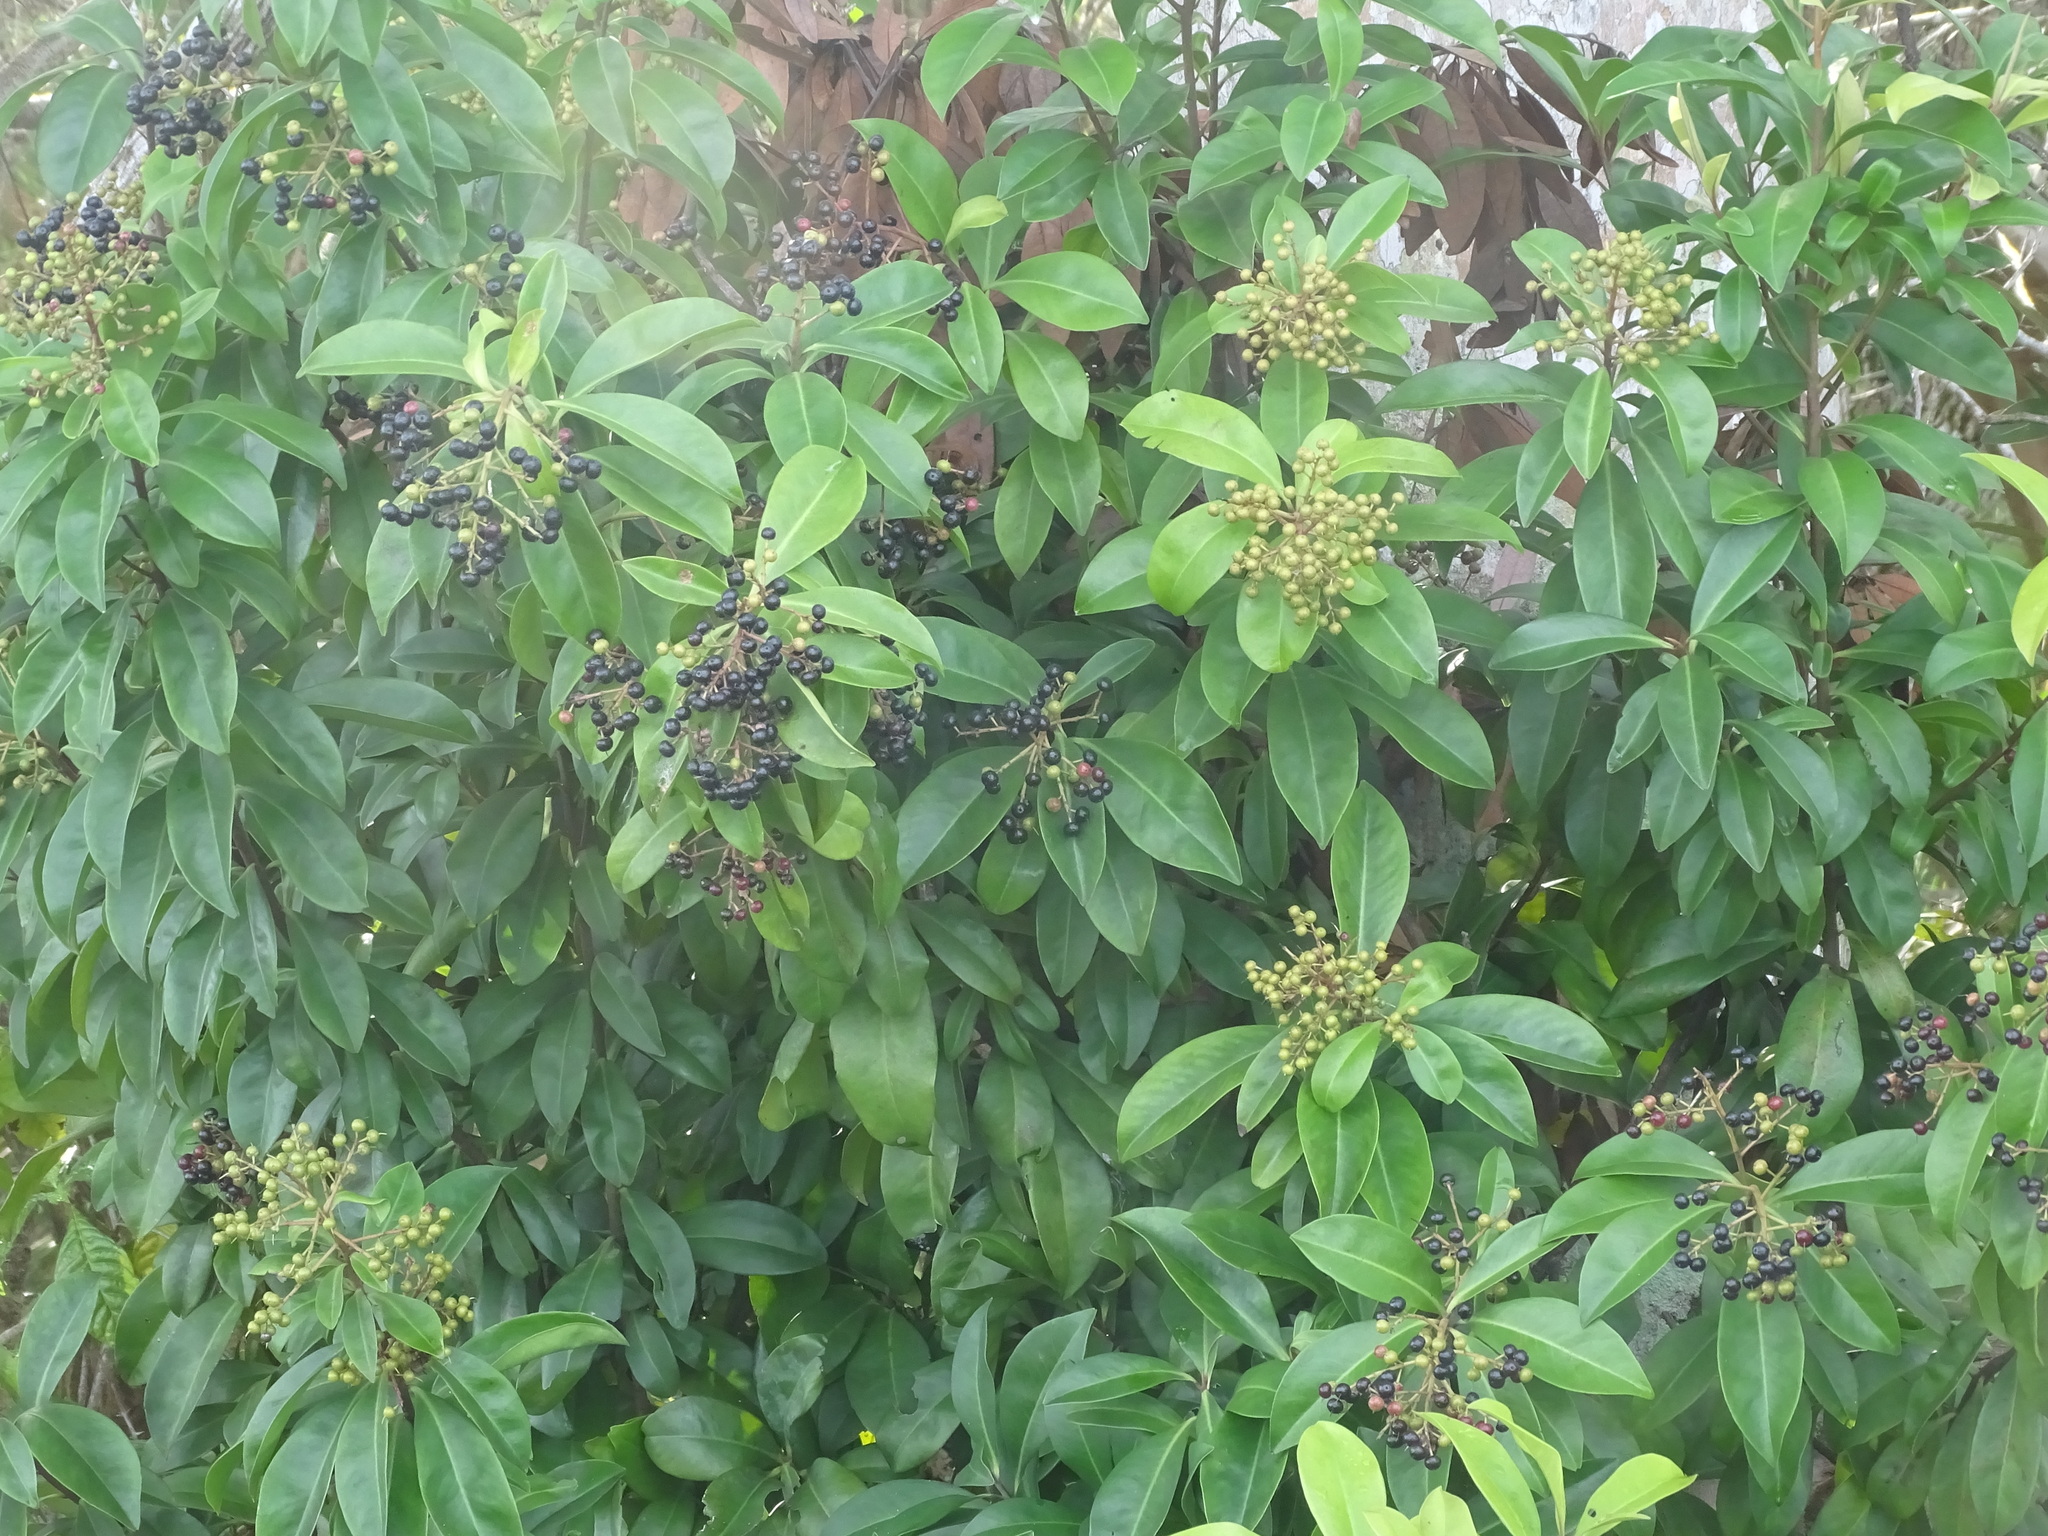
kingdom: Plantae
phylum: Tracheophyta
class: Magnoliopsida
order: Ericales
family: Primulaceae
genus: Ardisia
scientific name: Ardisia escallonioides
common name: Island marlberry
